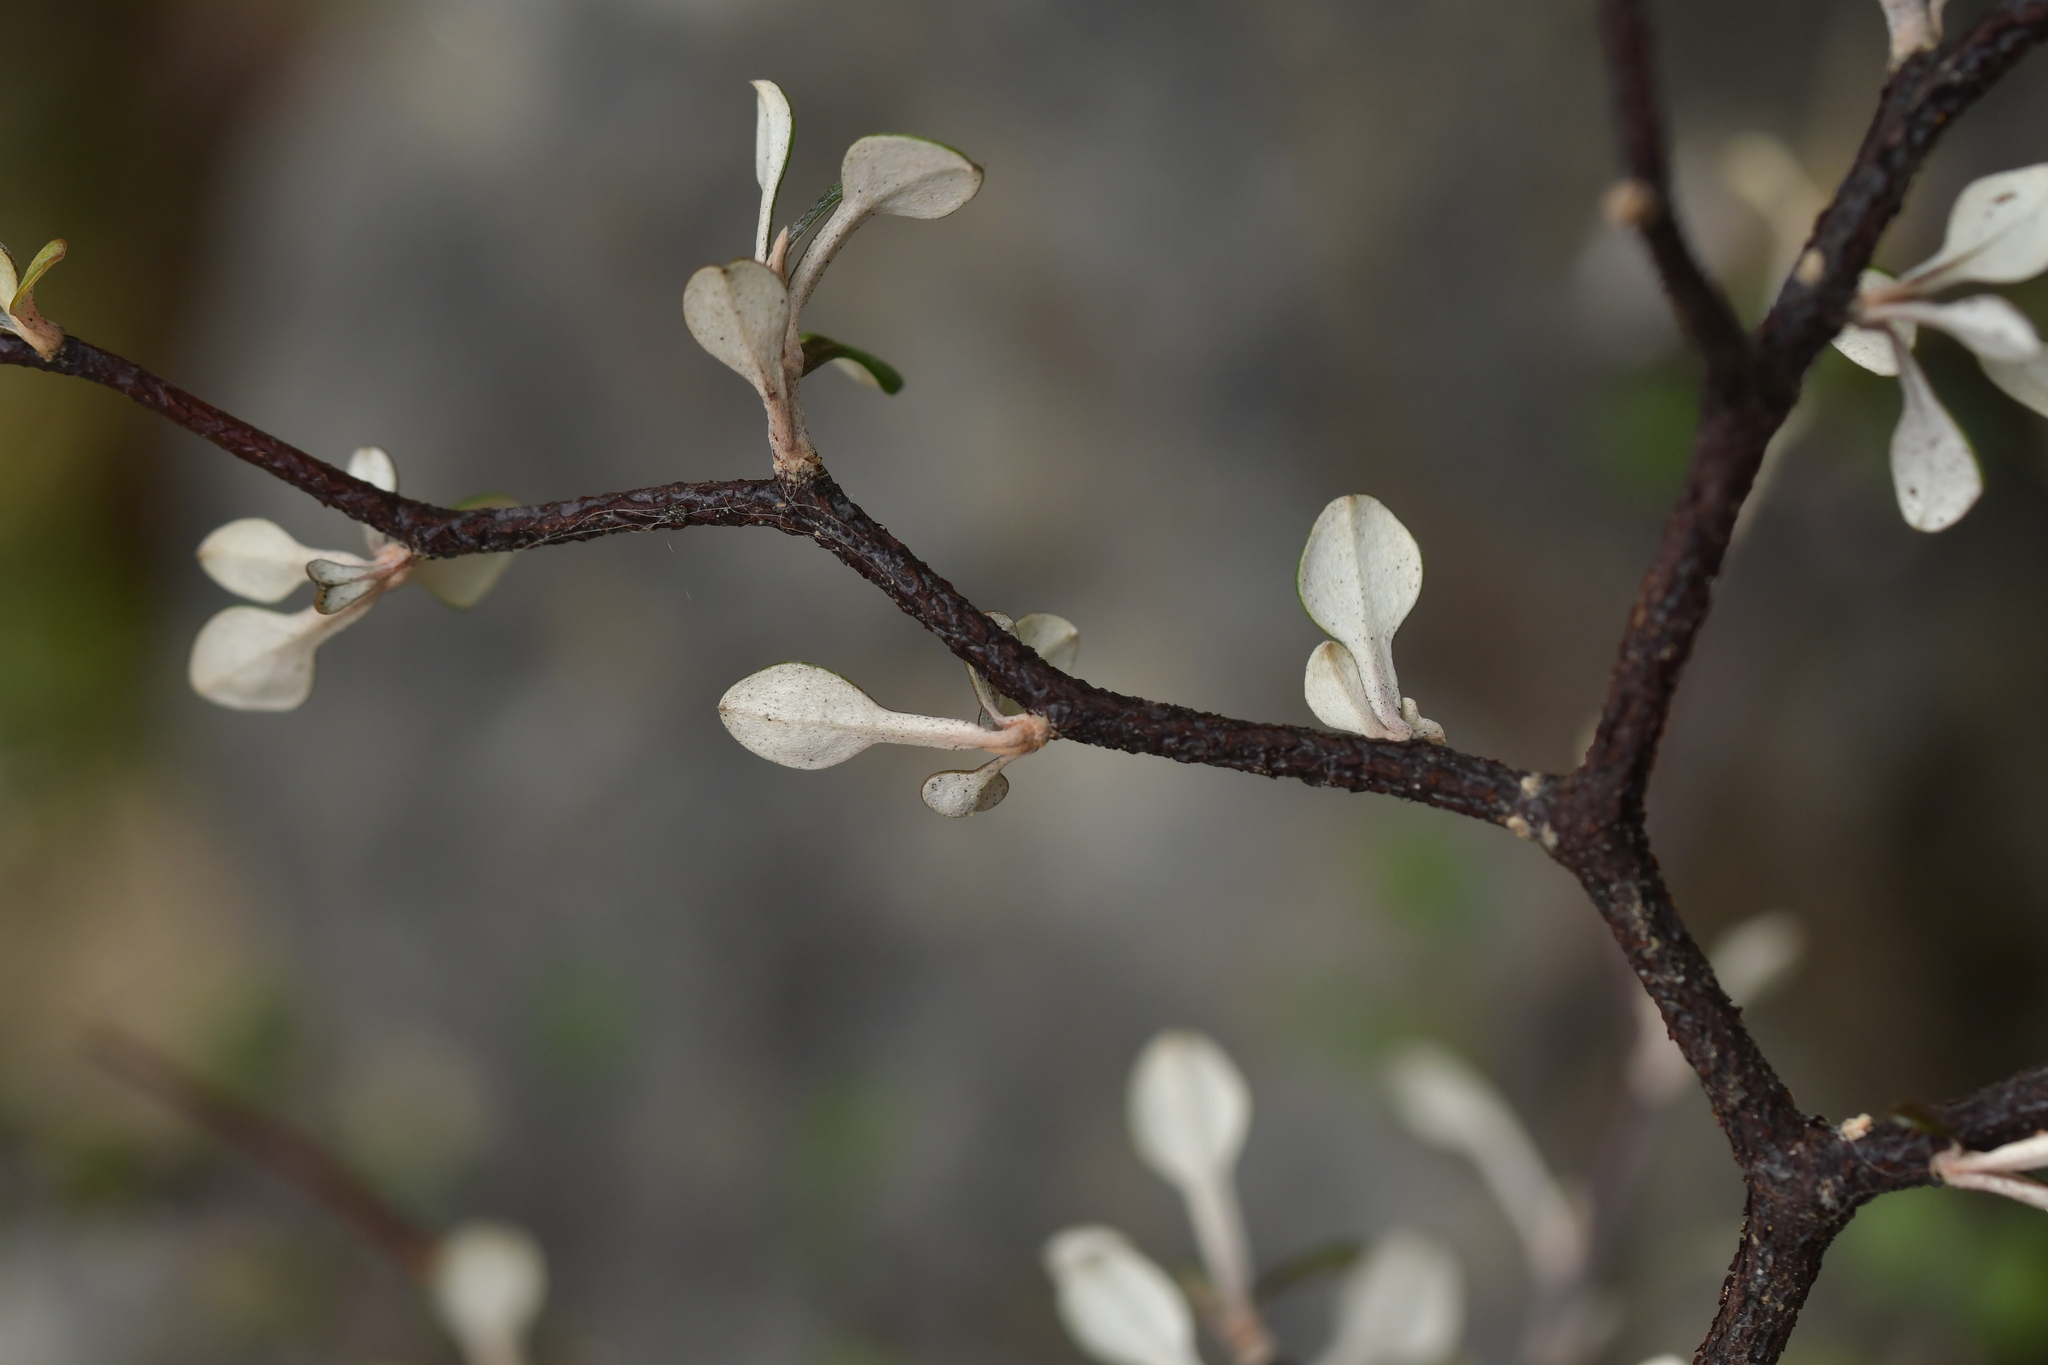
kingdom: Plantae
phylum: Tracheophyta
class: Magnoliopsida
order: Asterales
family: Argophyllaceae
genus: Corokia
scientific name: Corokia cotoneaster
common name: Wire nettingbush
